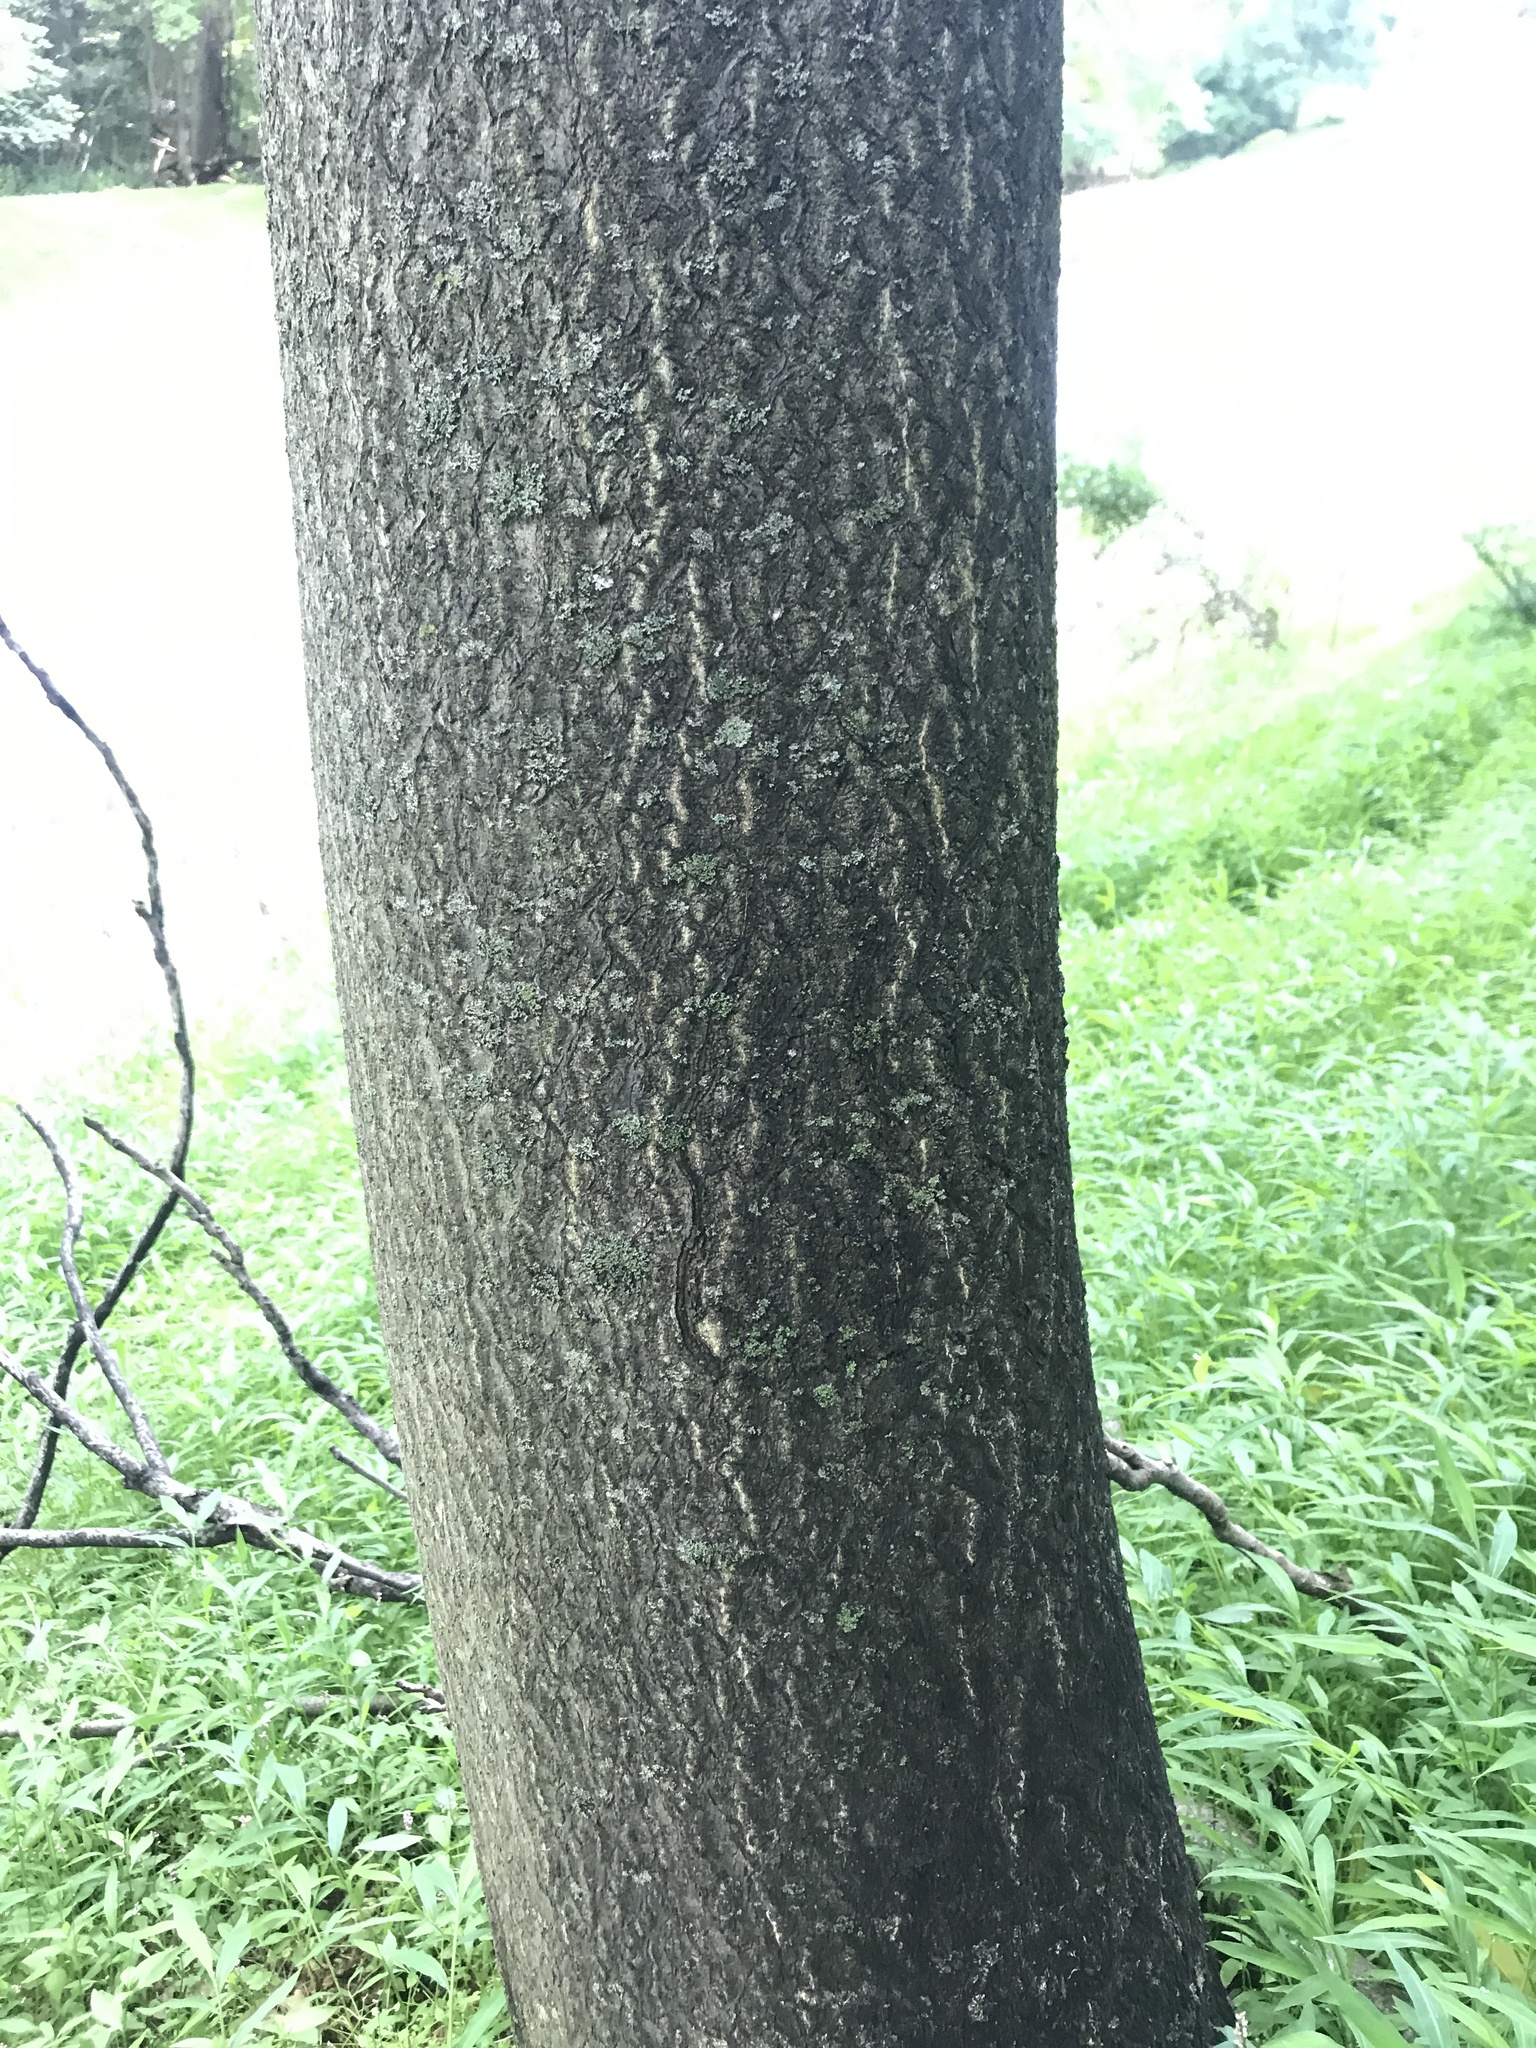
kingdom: Plantae
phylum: Tracheophyta
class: Magnoliopsida
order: Sapindales
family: Simaroubaceae
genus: Ailanthus
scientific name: Ailanthus altissima
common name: Tree-of-heaven
